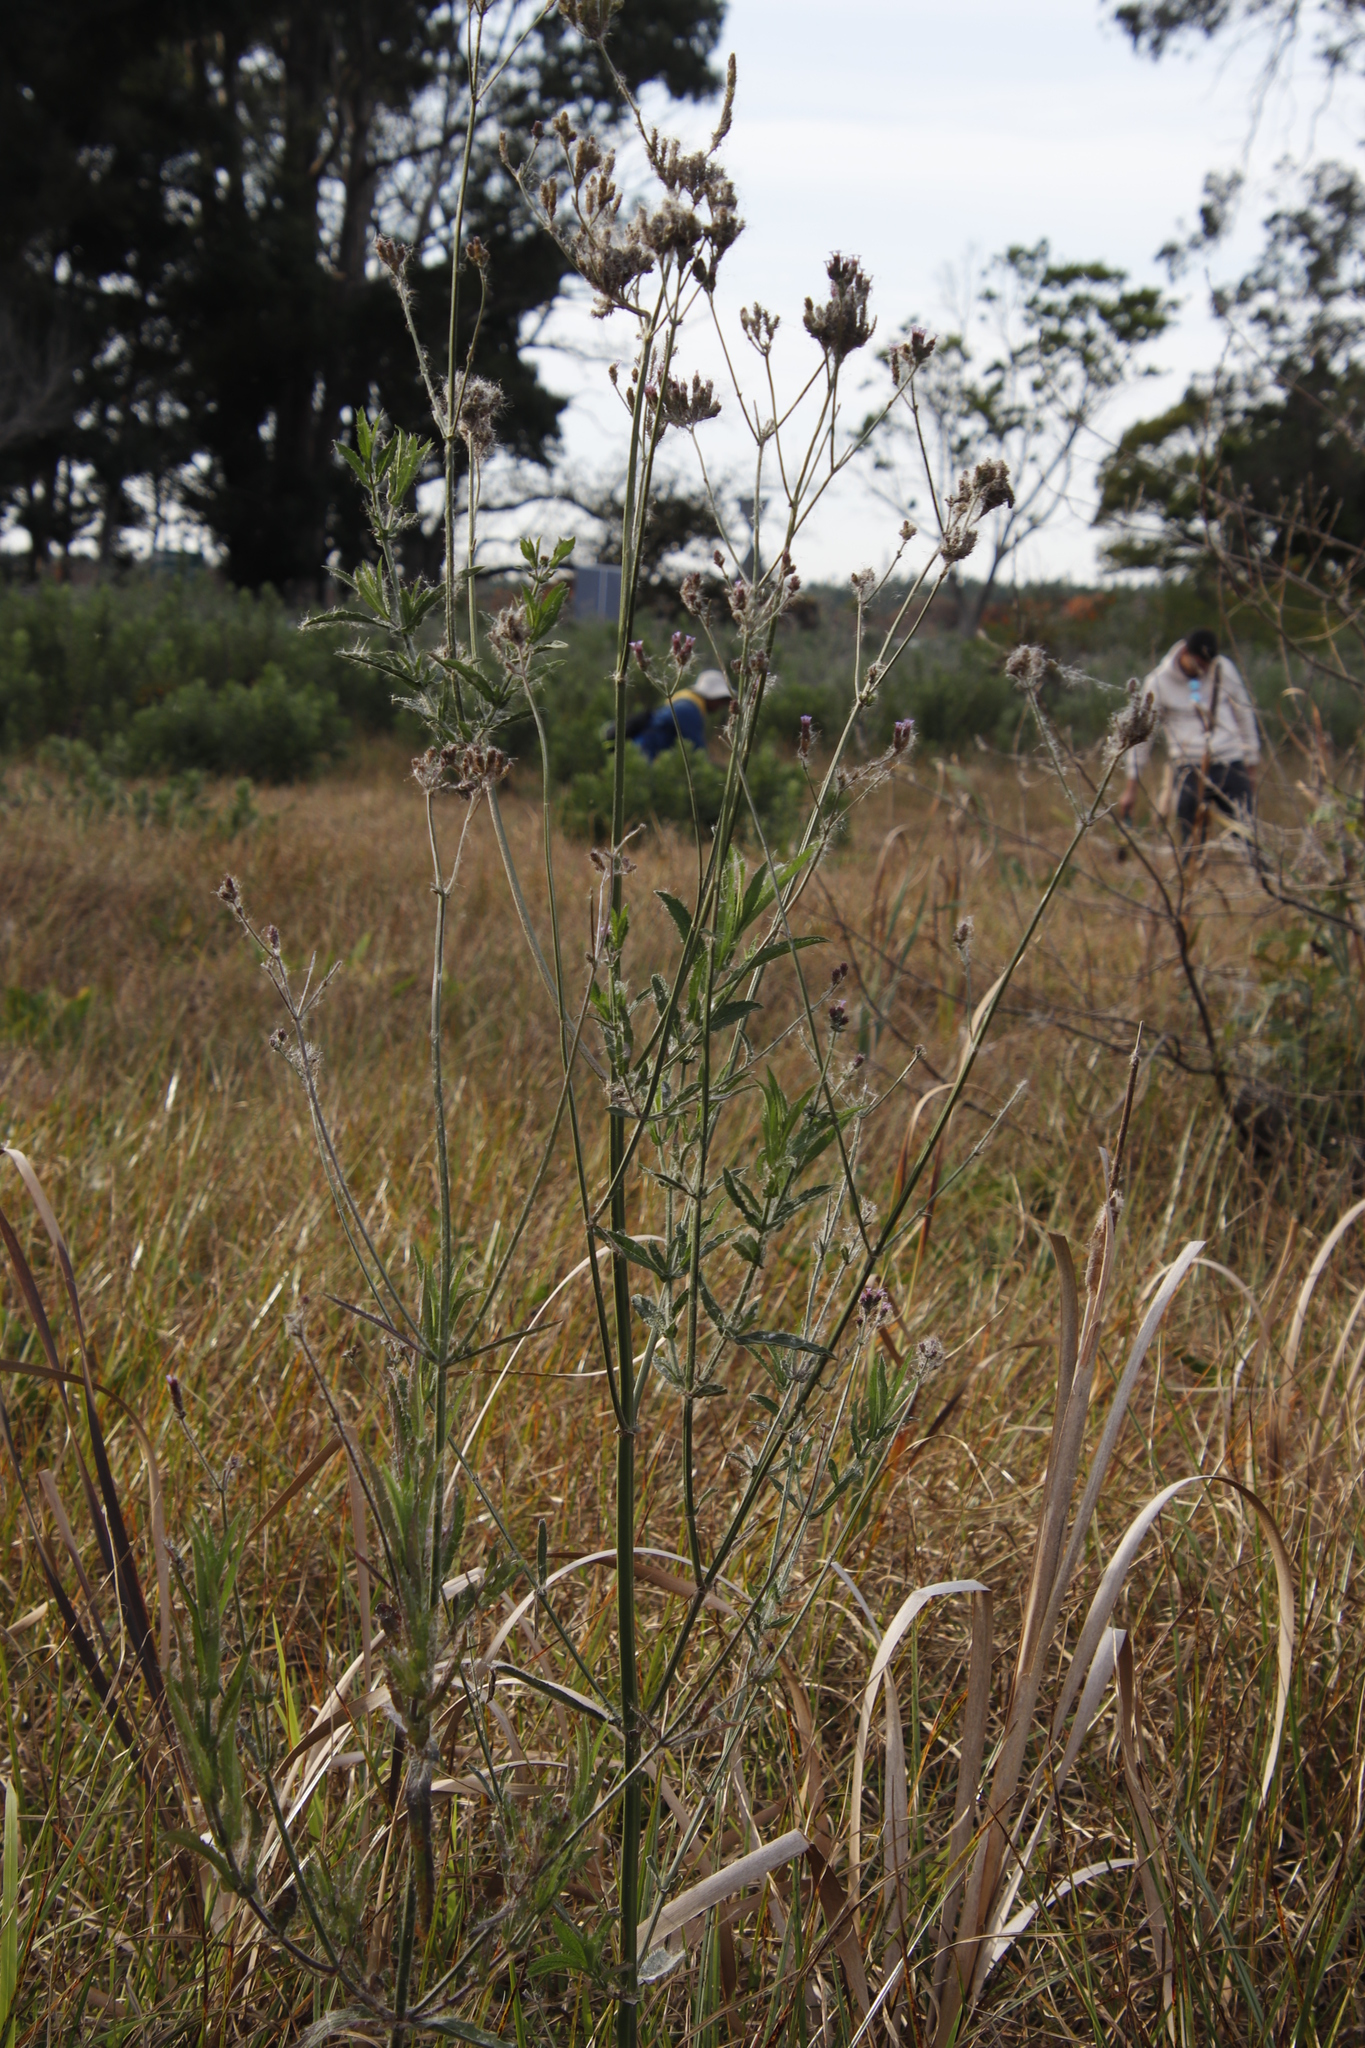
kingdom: Plantae
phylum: Tracheophyta
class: Magnoliopsida
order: Lamiales
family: Verbenaceae
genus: Verbena
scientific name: Verbena bonariensis
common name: Purpletop vervain
